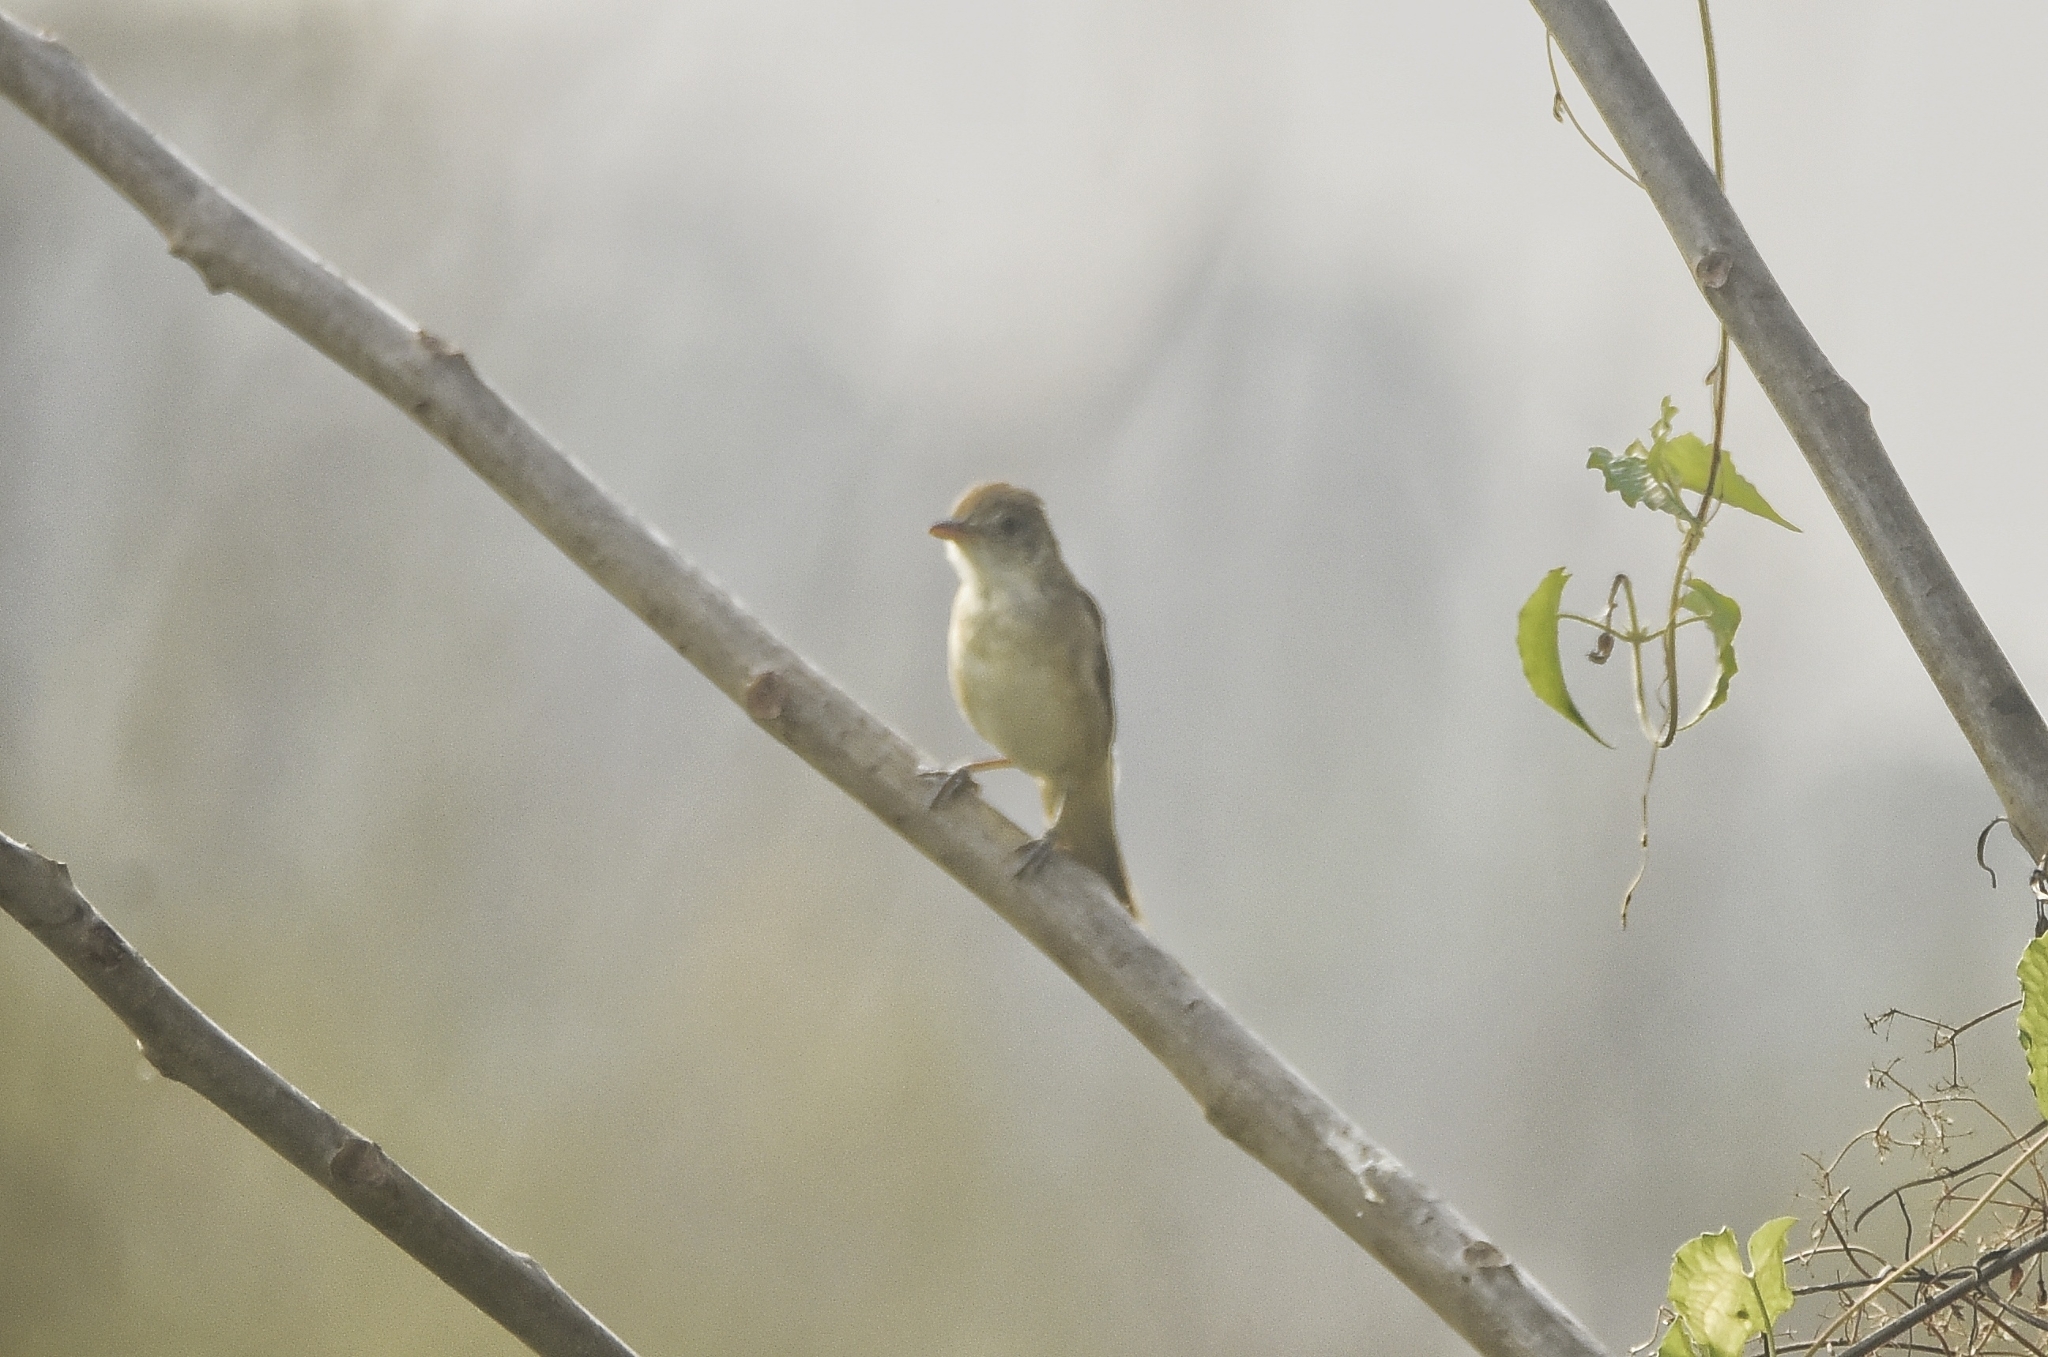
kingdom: Animalia
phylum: Chordata
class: Aves
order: Passeriformes
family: Acrocephalidae
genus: Iduna
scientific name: Iduna aedon
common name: Thick-billed warbler
